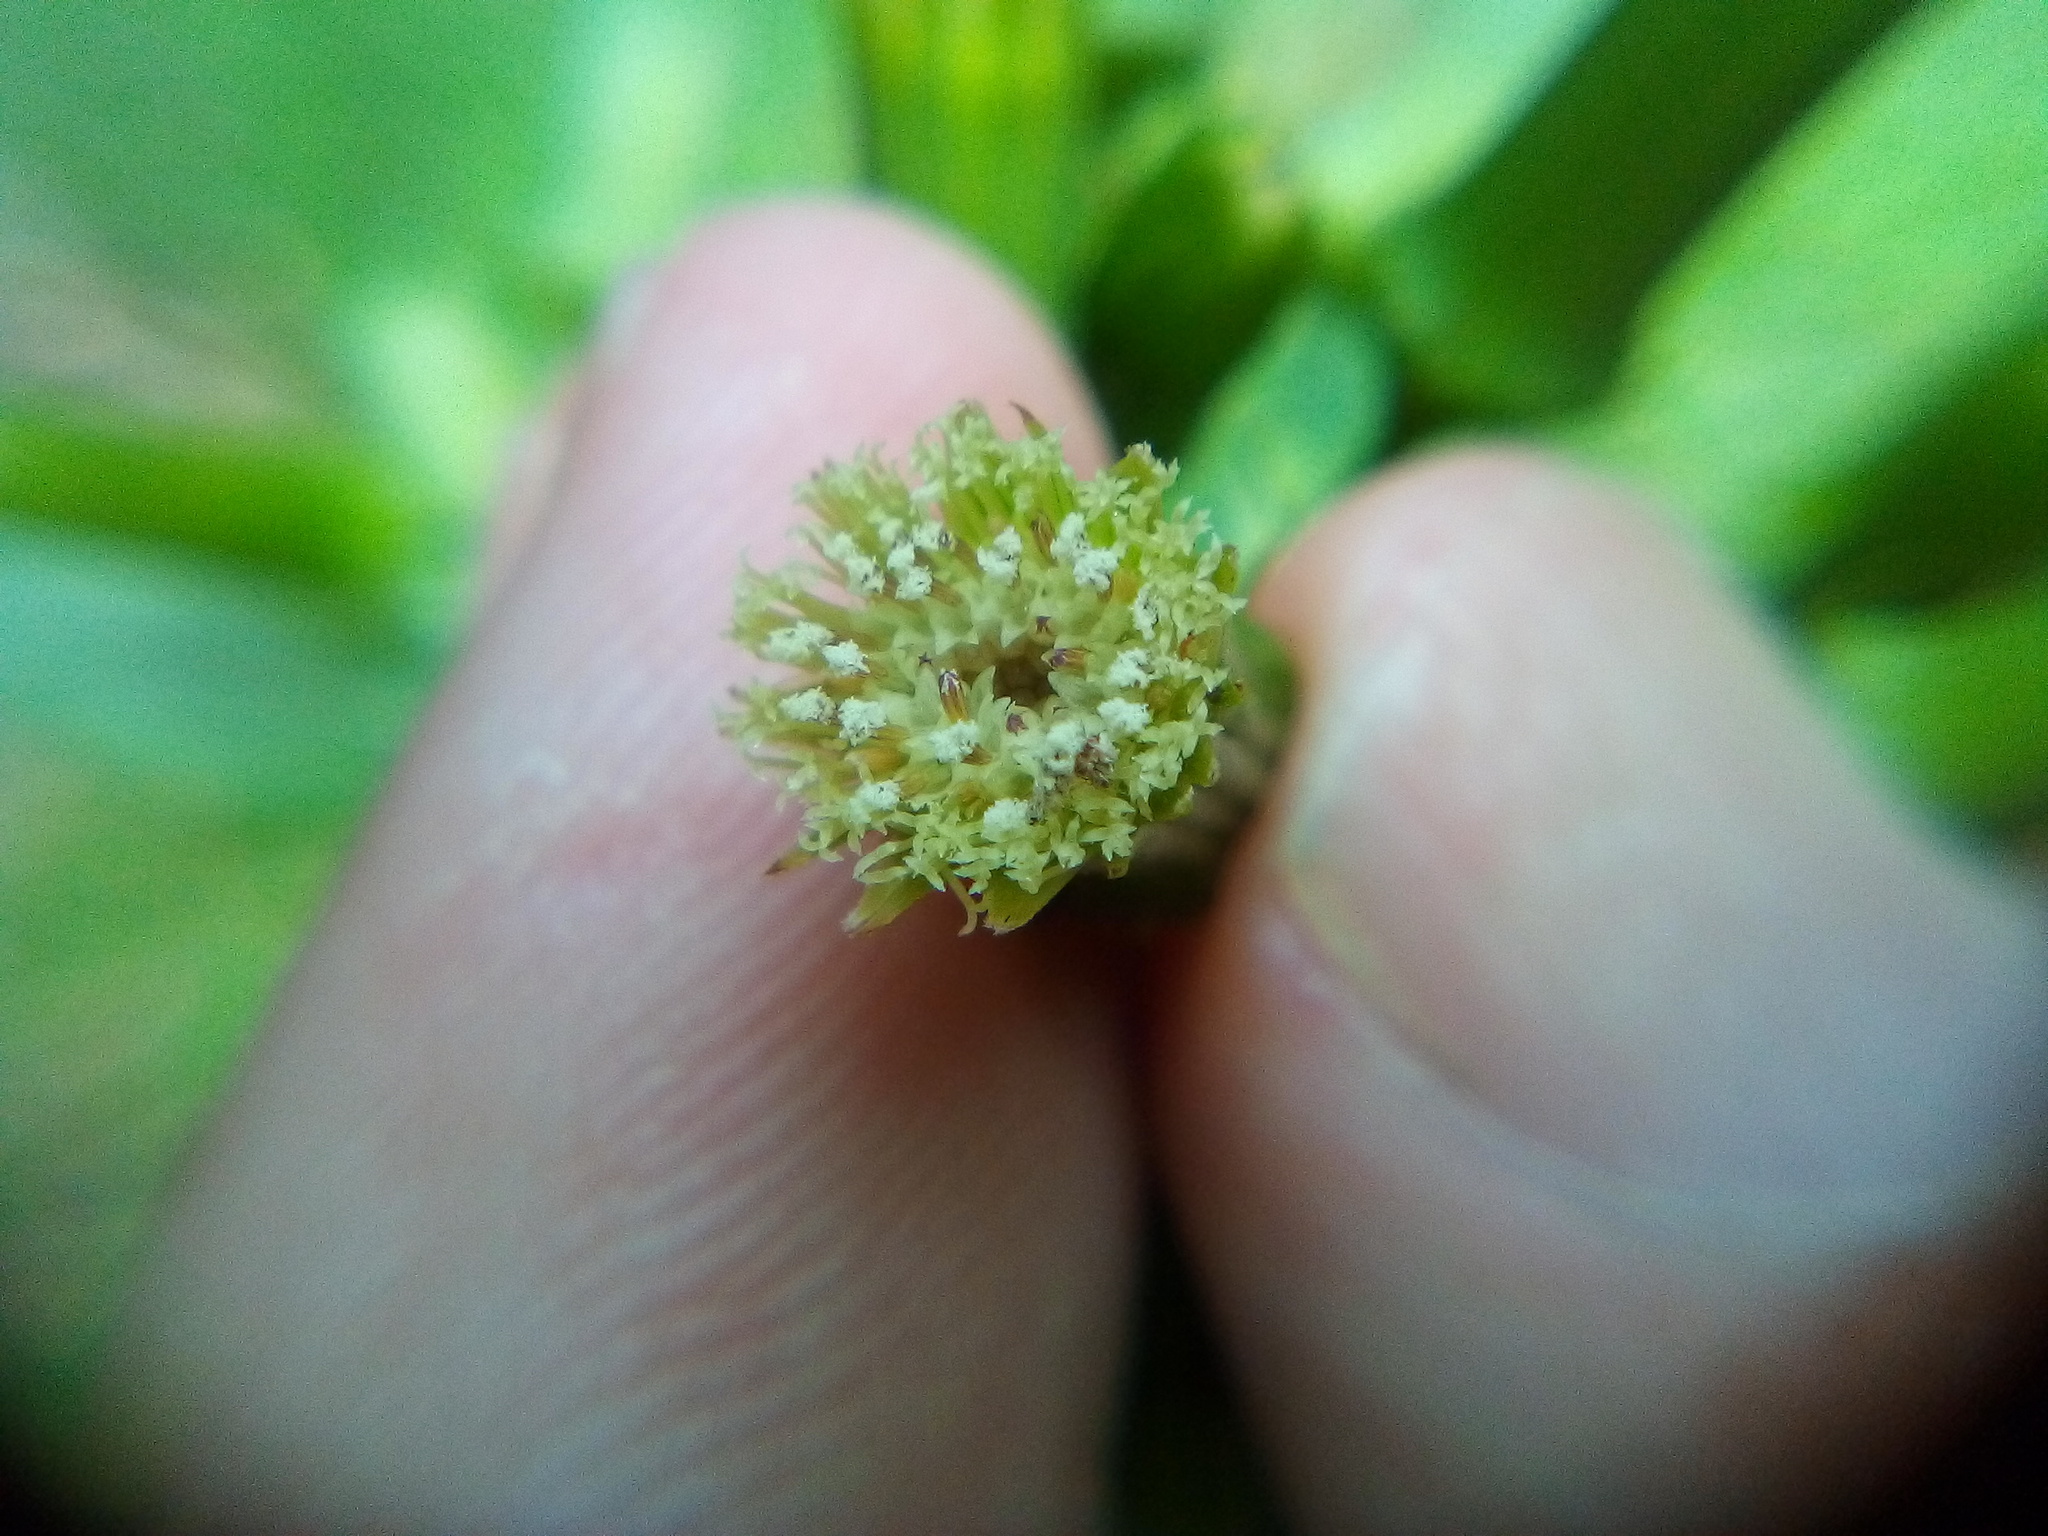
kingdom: Plantae
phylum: Tracheophyta
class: Magnoliopsida
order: Asterales
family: Asteraceae
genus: Erechtites
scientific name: Erechtites hieraciifolius
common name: American burnweed
